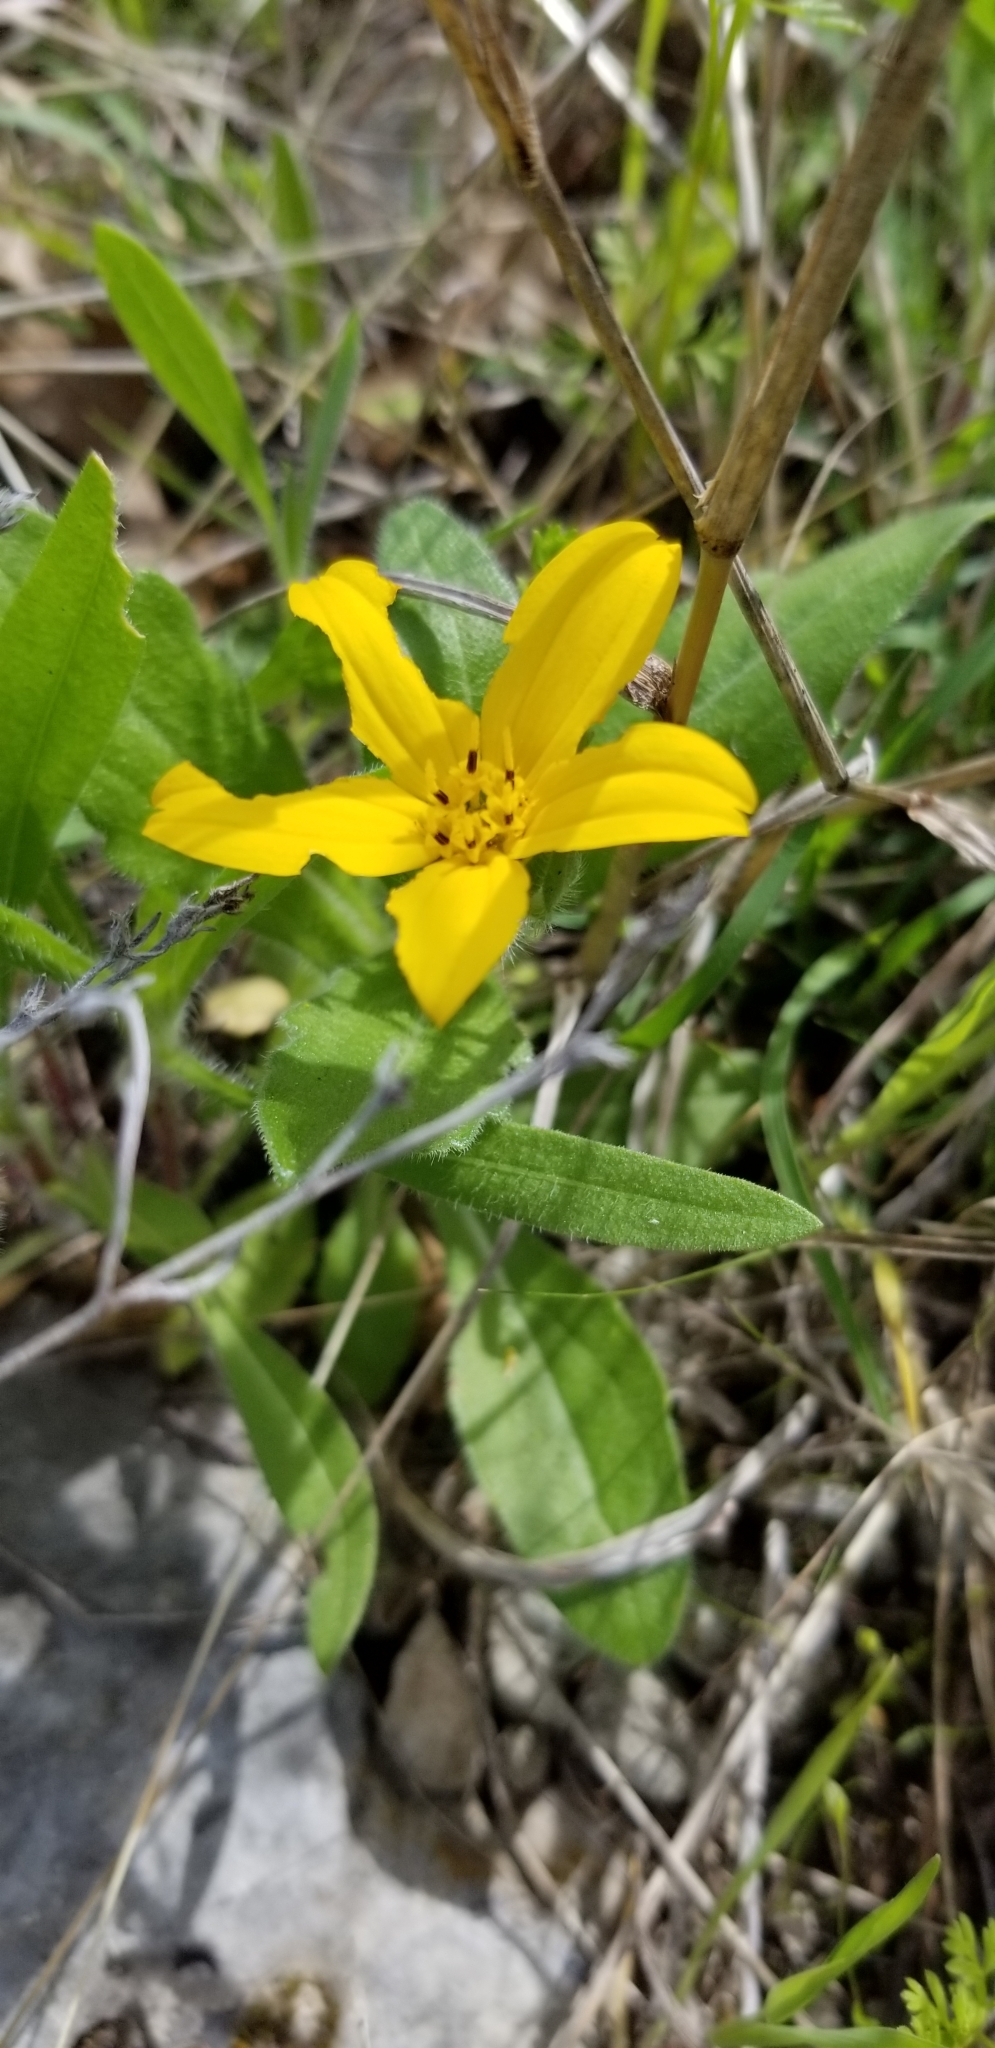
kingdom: Plantae
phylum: Tracheophyta
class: Magnoliopsida
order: Asterales
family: Asteraceae
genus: Lindheimera
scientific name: Lindheimera texana
